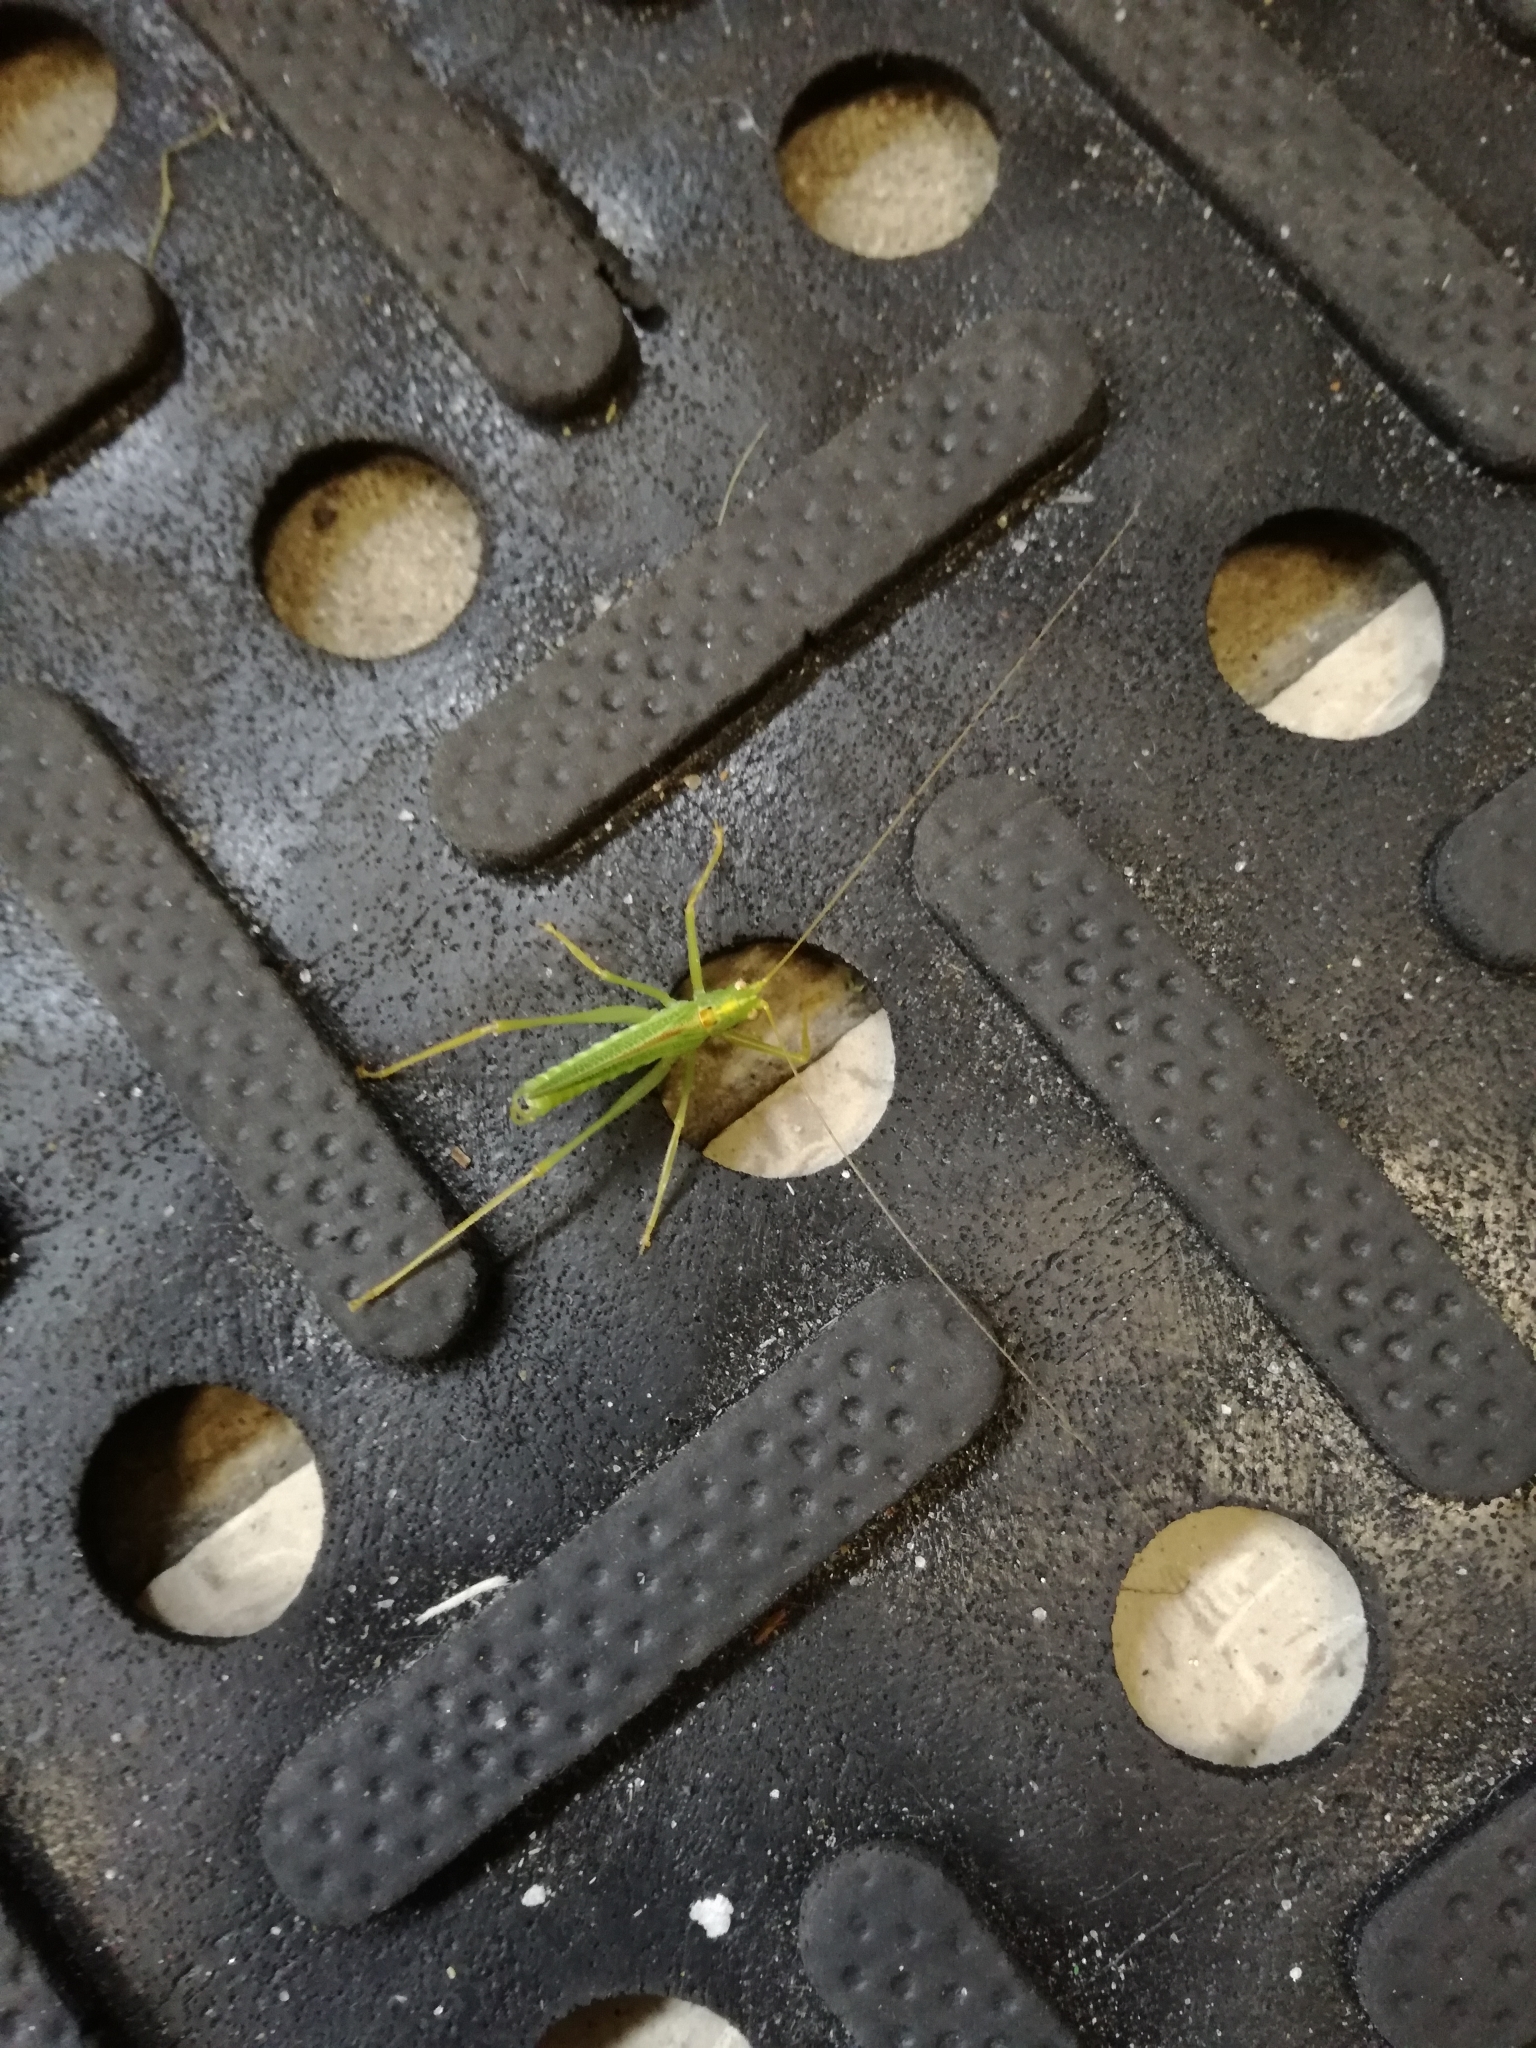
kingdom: Animalia
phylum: Arthropoda
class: Insecta
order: Orthoptera
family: Tettigoniidae
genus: Meconema
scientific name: Meconema thalassinum
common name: Oak bush-cricket
